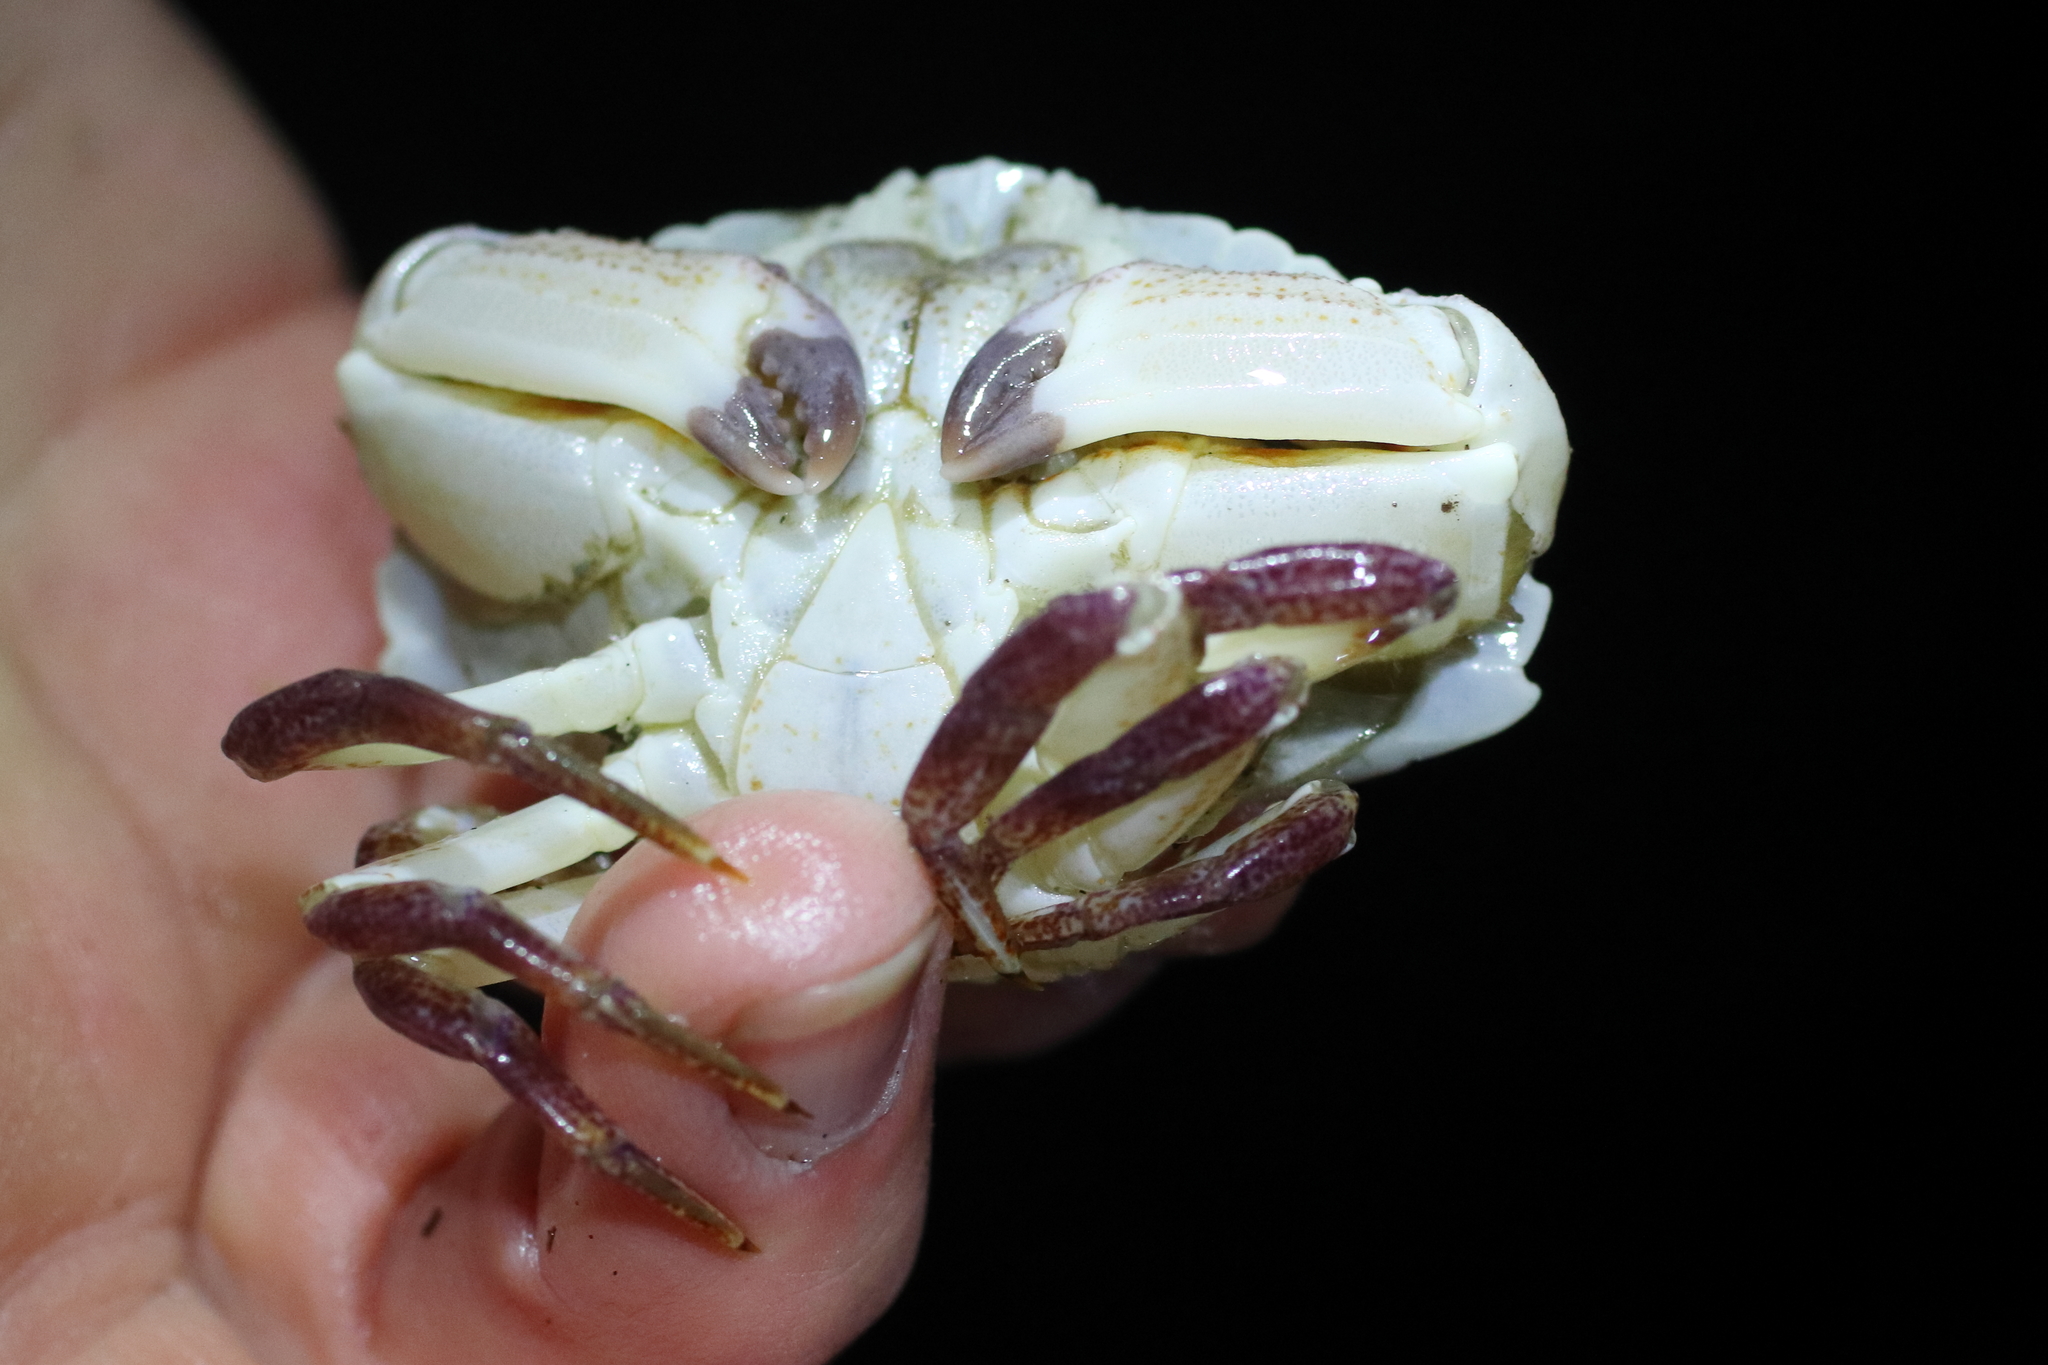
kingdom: Animalia
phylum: Arthropoda
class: Malacostraca
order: Decapoda
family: Cancridae
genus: Cancer
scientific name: Cancer productus
